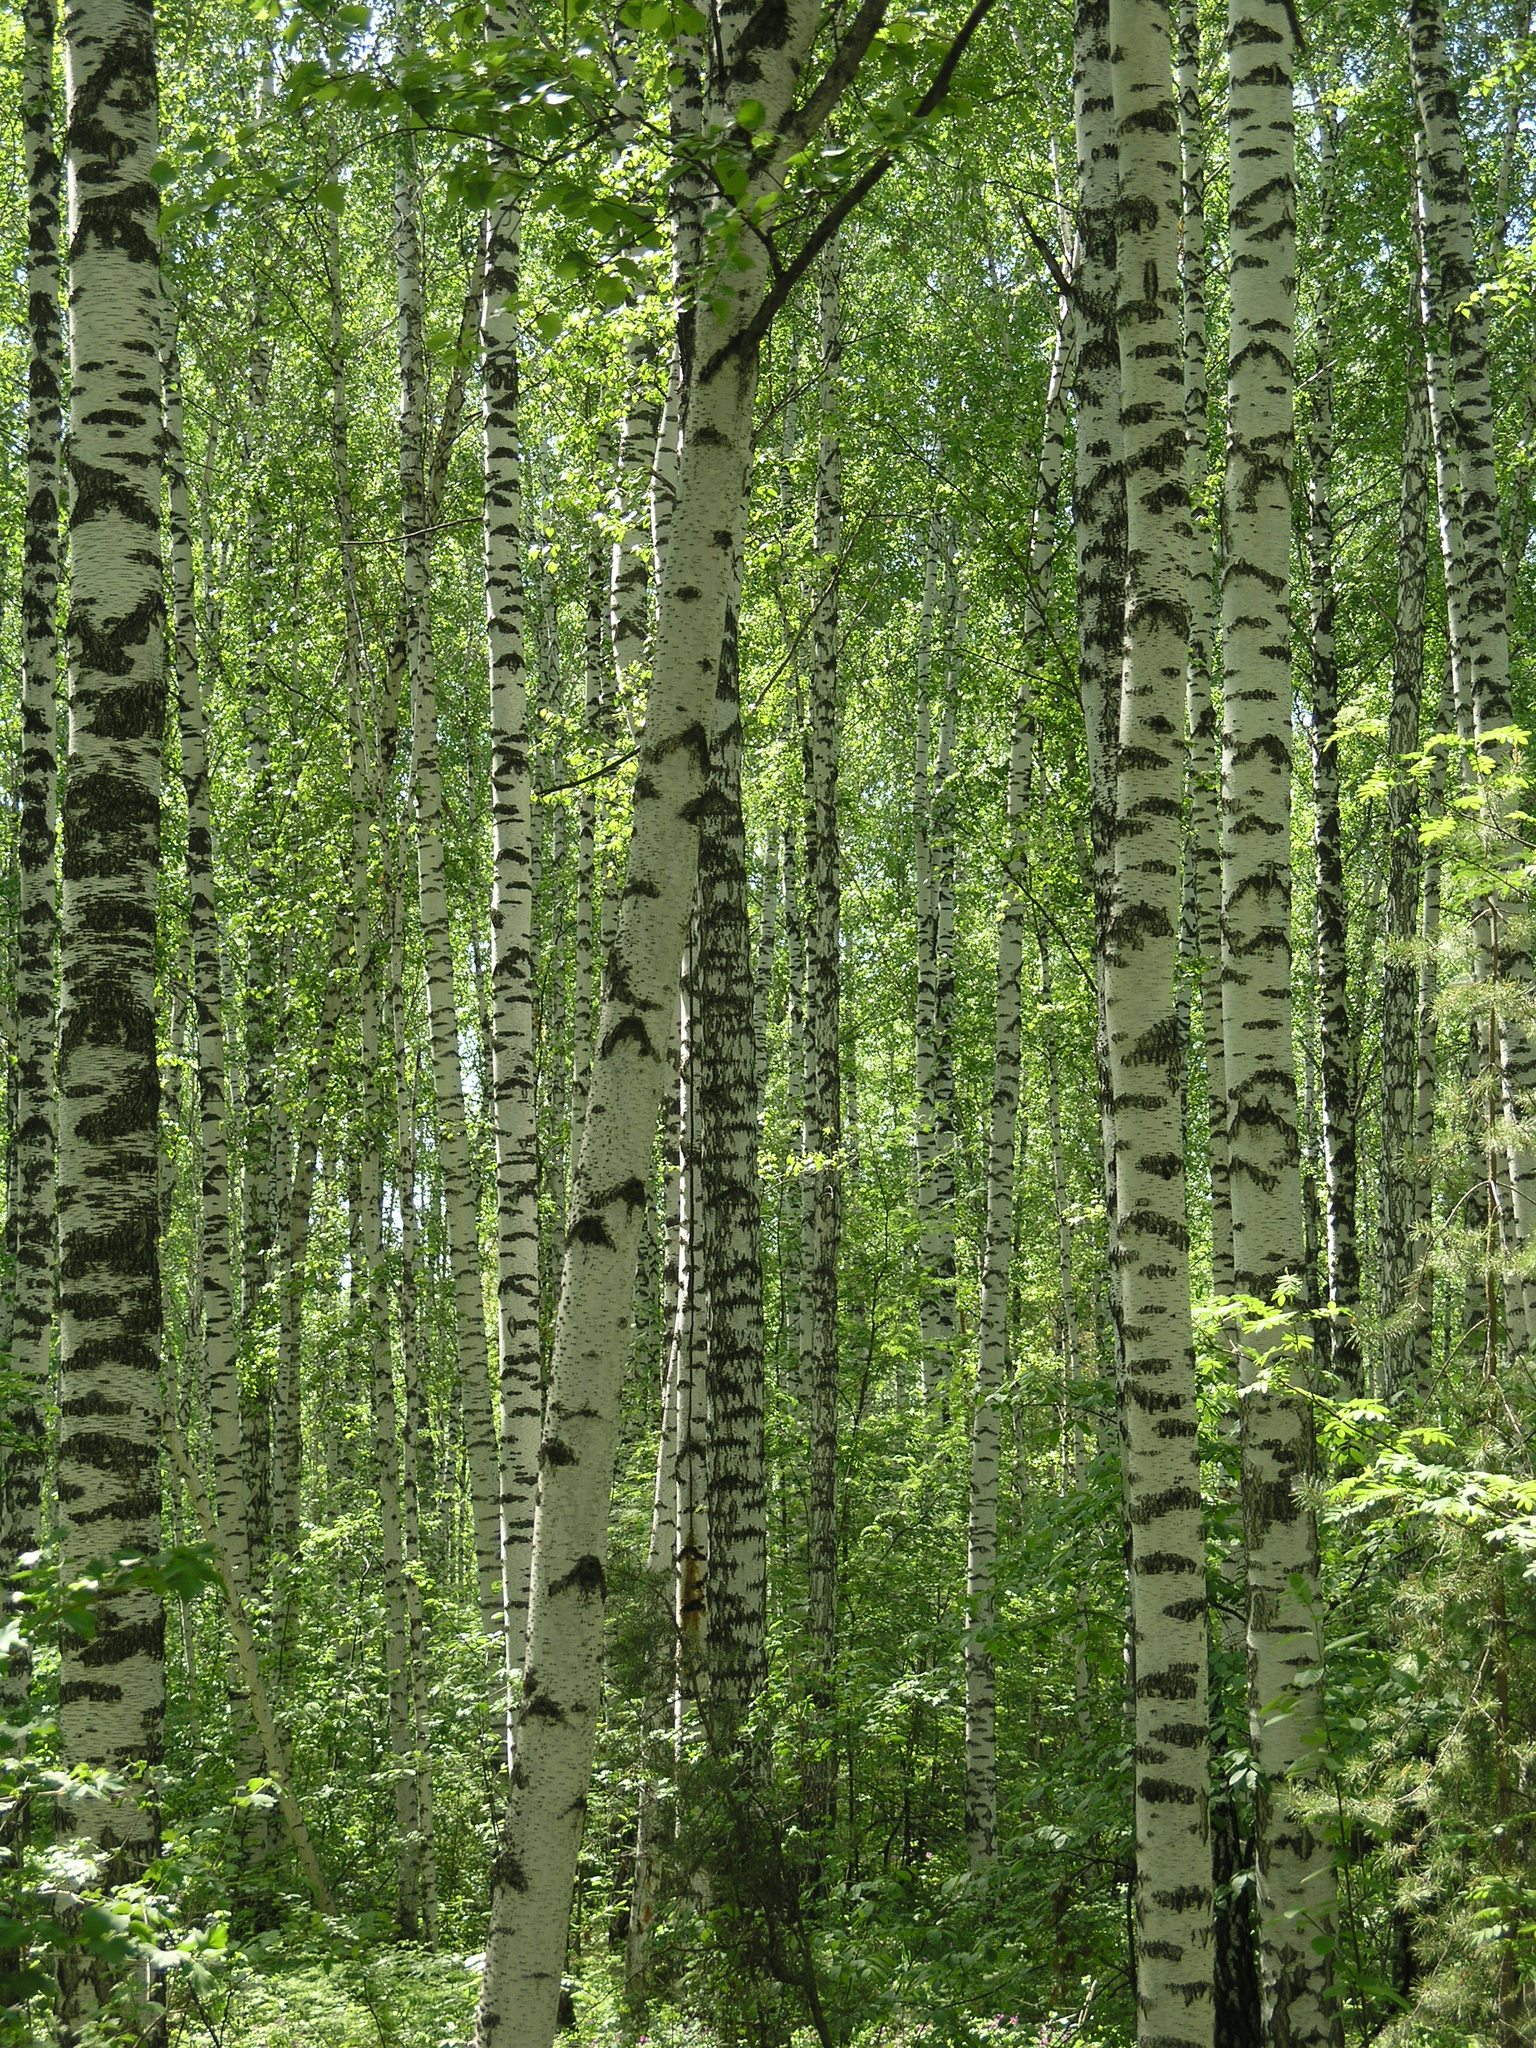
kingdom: Plantae
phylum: Tracheophyta
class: Magnoliopsida
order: Fagales
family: Betulaceae
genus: Betula
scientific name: Betula pendula
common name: Silver birch
